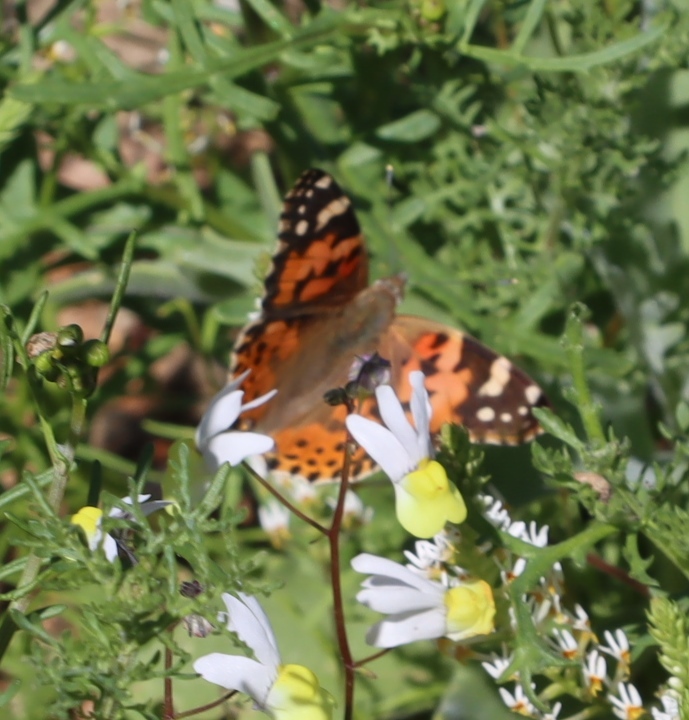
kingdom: Animalia
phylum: Arthropoda
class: Insecta
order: Lepidoptera
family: Nymphalidae
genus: Vanessa
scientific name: Vanessa cardui
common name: Painted lady
